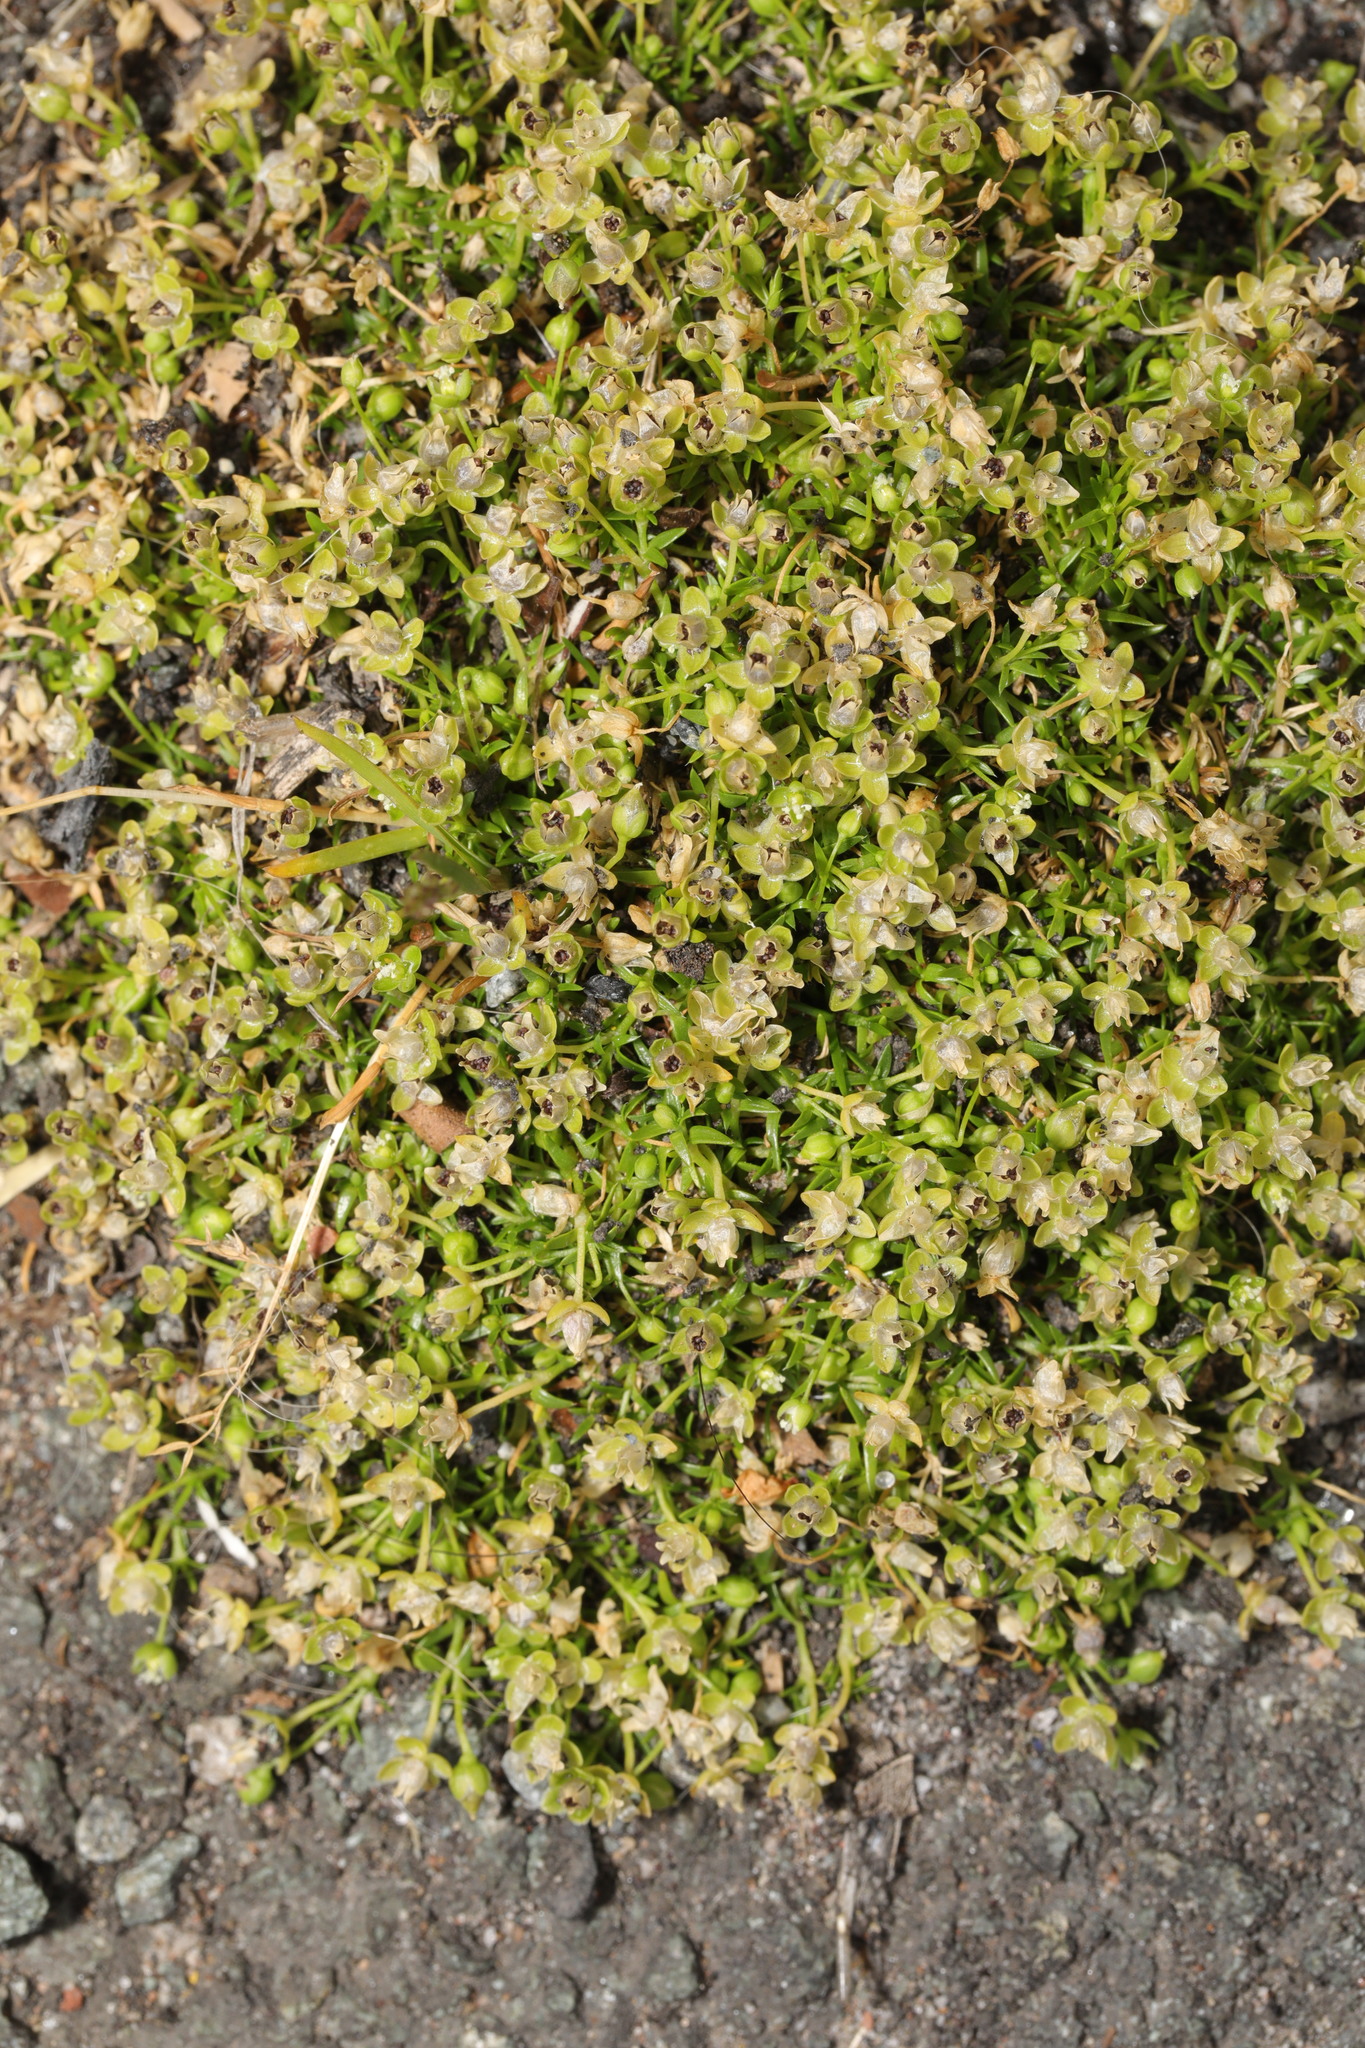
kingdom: Plantae
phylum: Tracheophyta
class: Magnoliopsida
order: Caryophyllales
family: Caryophyllaceae
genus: Sagina
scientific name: Sagina procumbens
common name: Procumbent pearlwort
